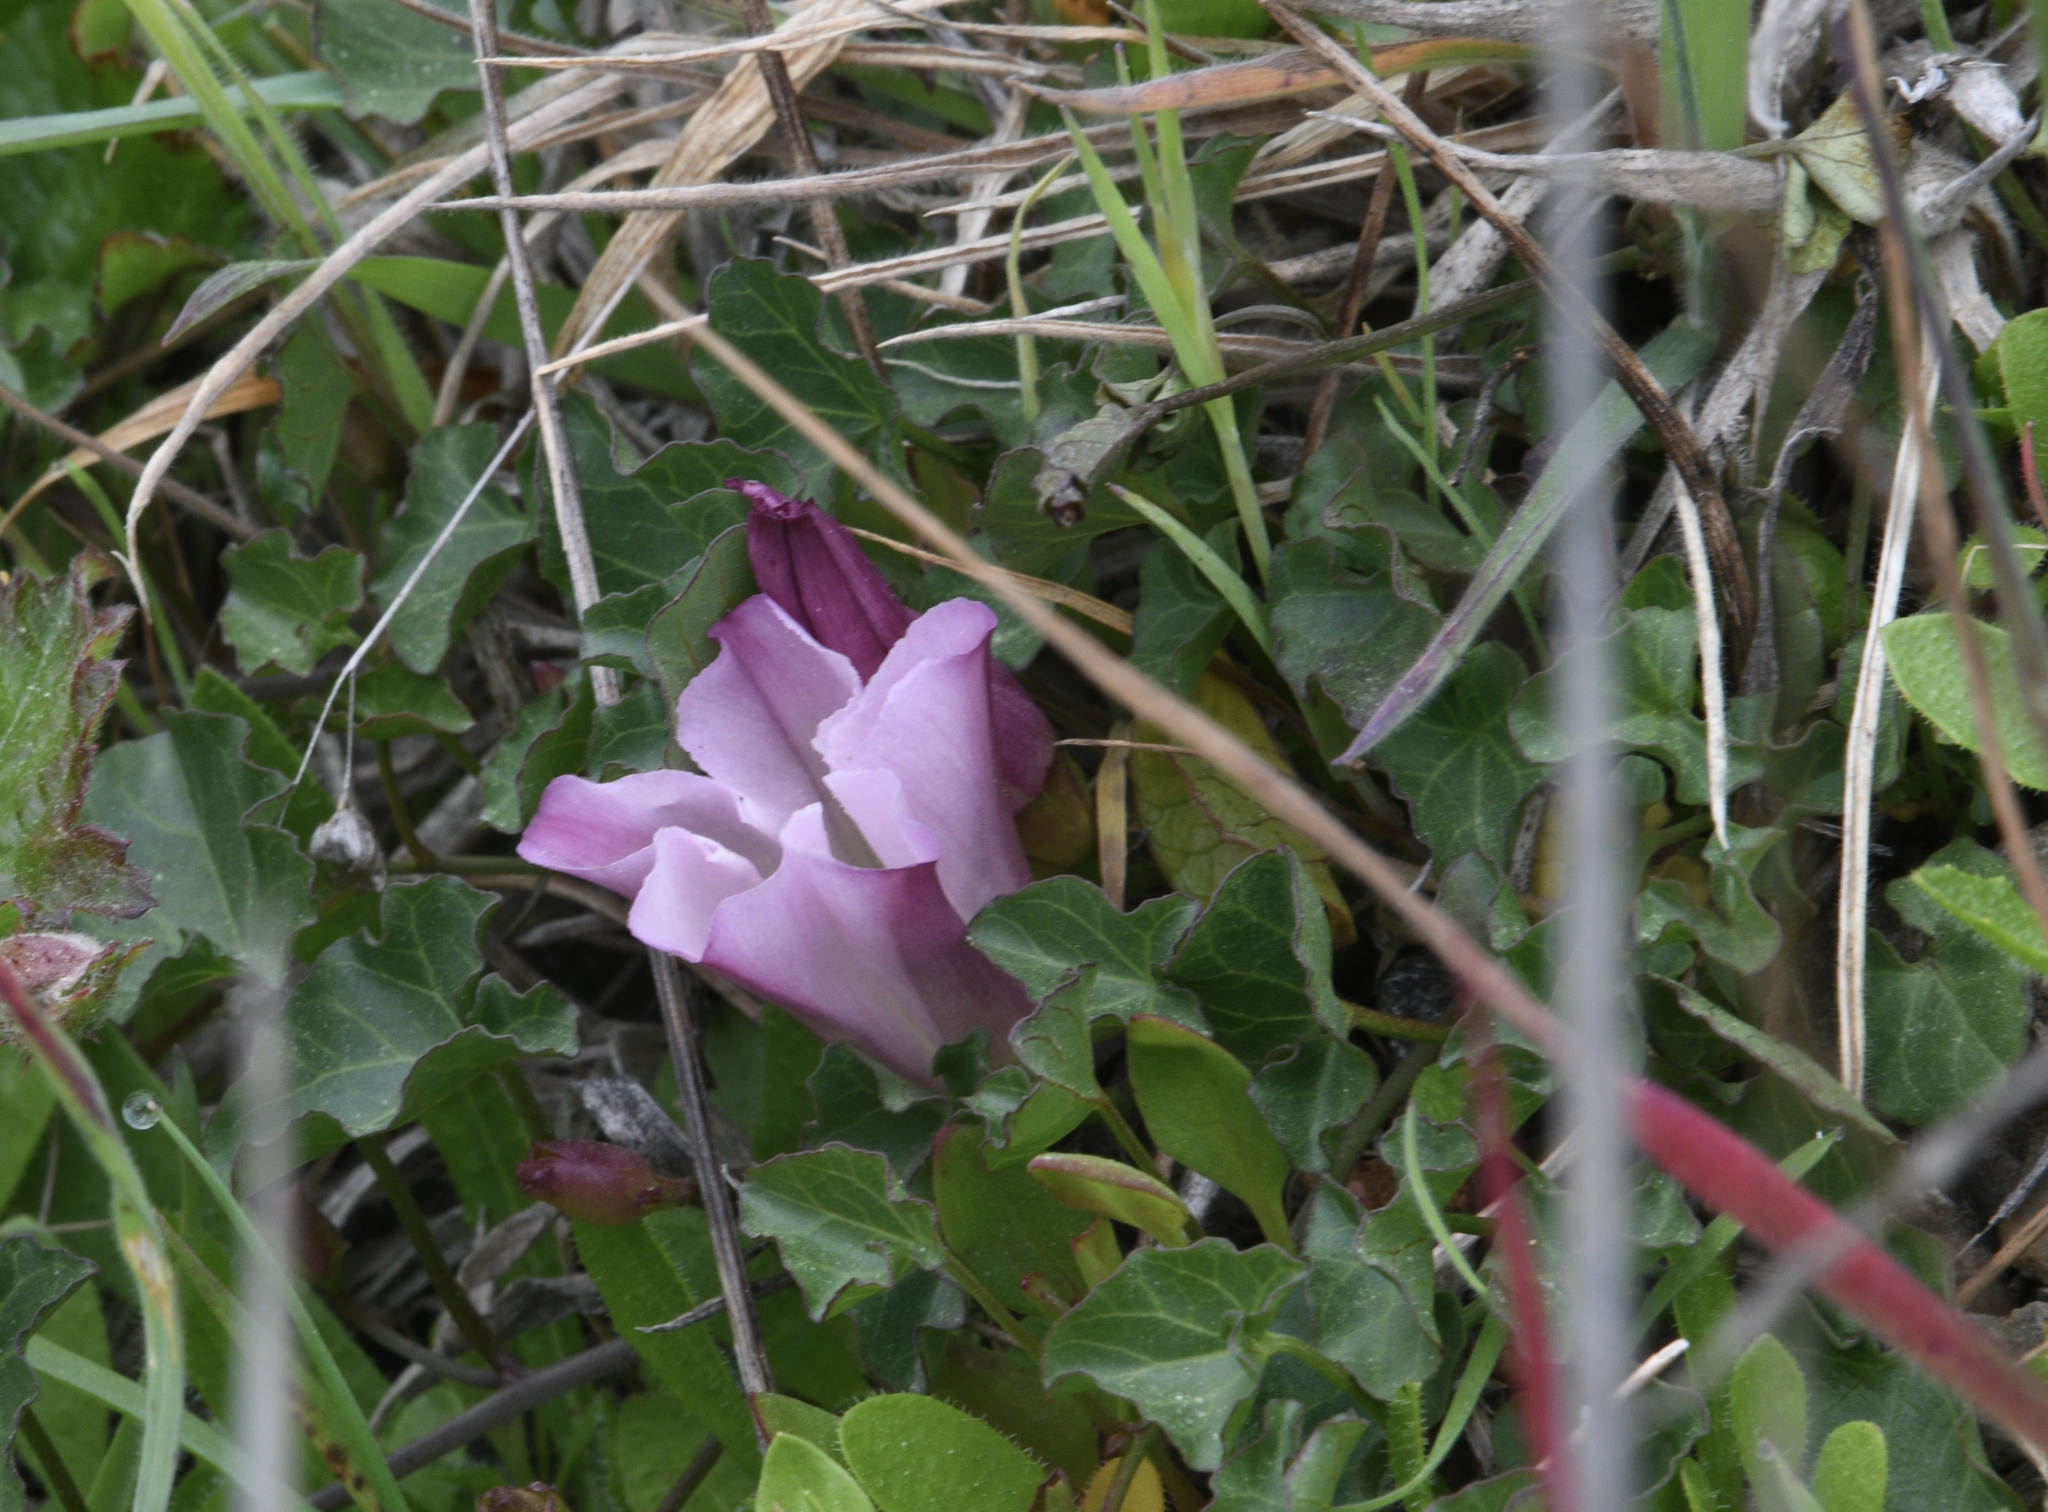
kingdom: Plantae
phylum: Tracheophyta
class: Magnoliopsida
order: Solanales
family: Convolvulaceae
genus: Calystegia
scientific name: Calystegia purpurata
